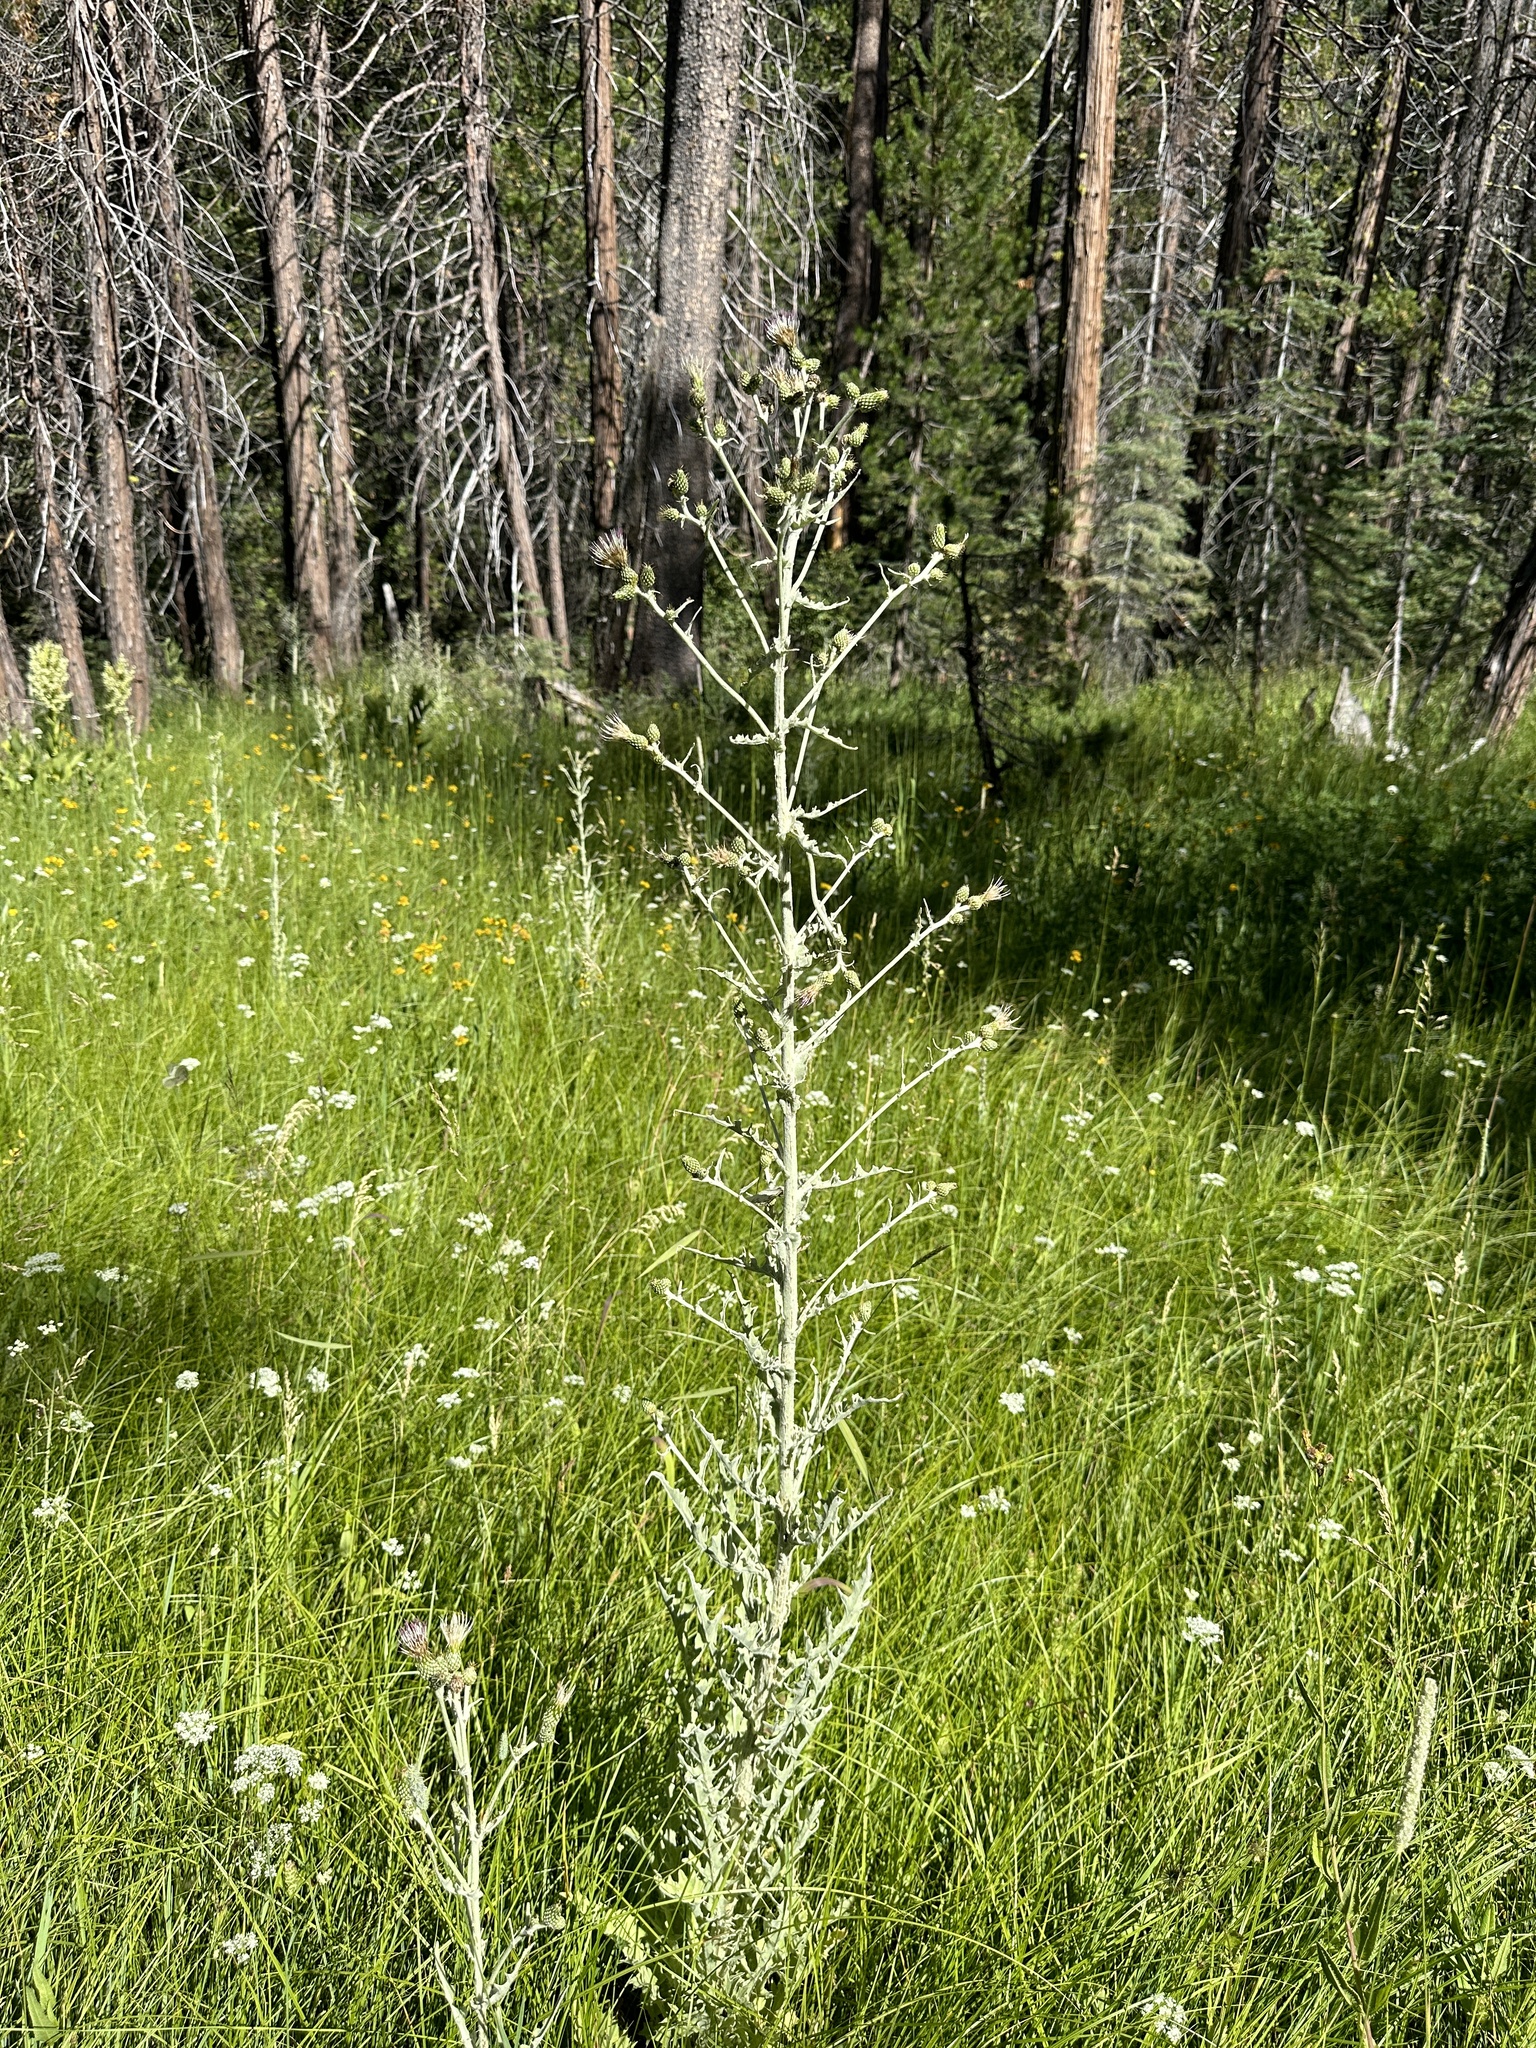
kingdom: Plantae
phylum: Tracheophyta
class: Magnoliopsida
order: Asterales
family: Asteraceae
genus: Cirsium
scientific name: Cirsium douglasii
